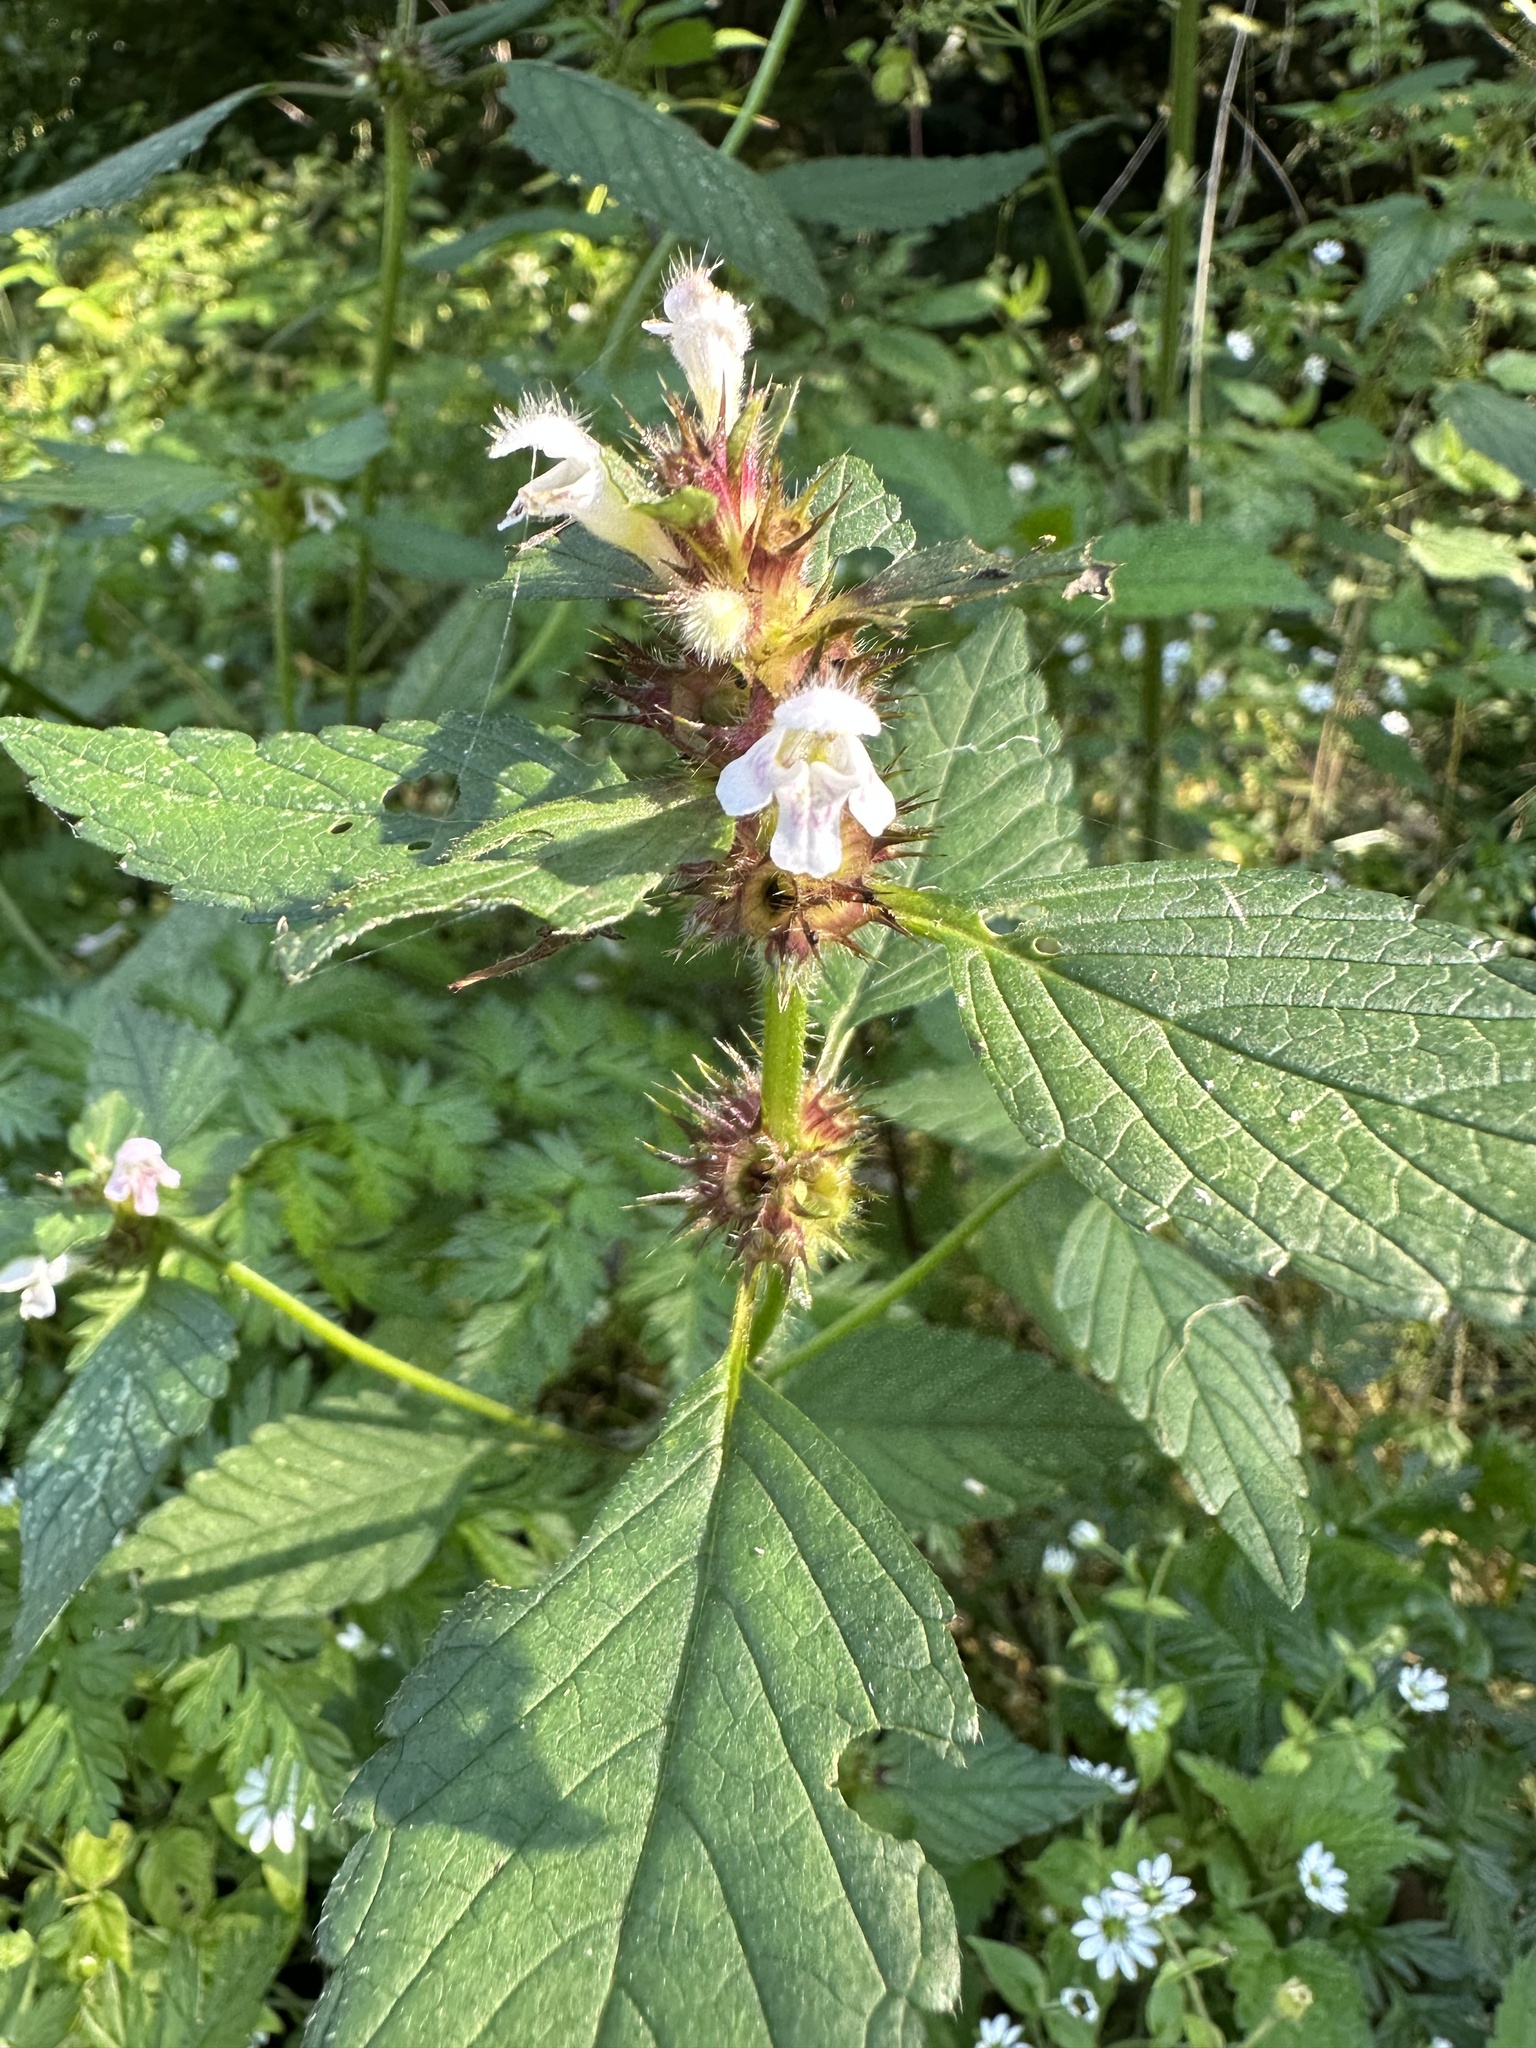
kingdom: Plantae
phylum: Tracheophyta
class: Magnoliopsida
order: Lamiales
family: Lamiaceae
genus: Galeopsis
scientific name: Galeopsis tetrahit
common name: Common hemp-nettle
